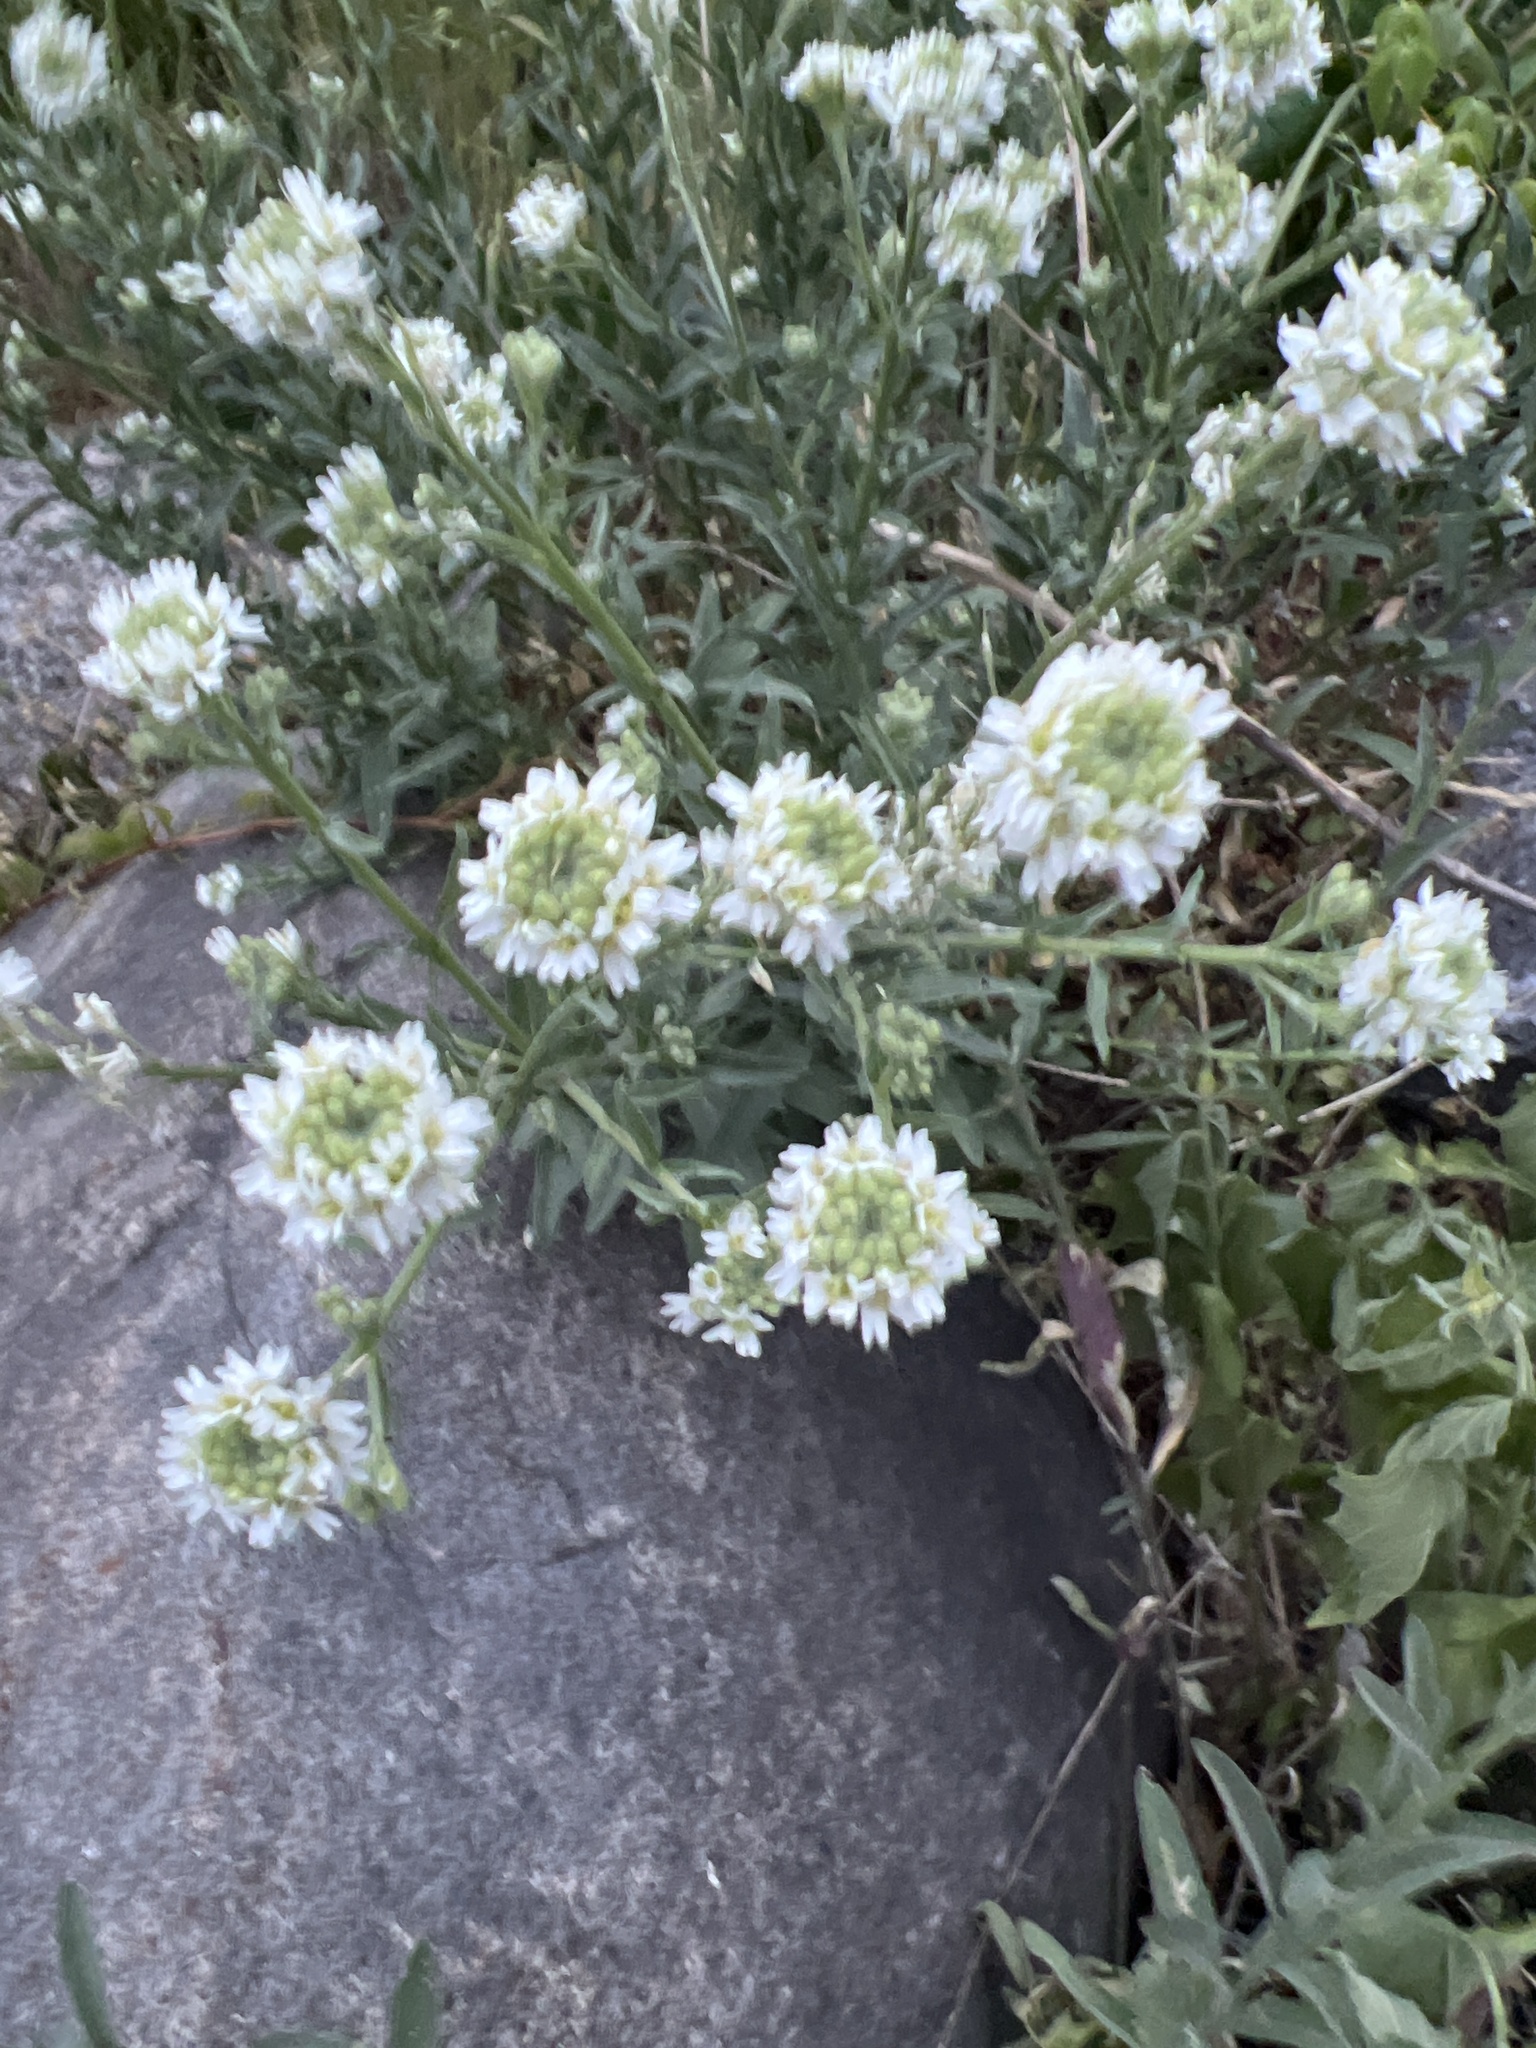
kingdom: Plantae
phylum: Tracheophyta
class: Magnoliopsida
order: Brassicales
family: Brassicaceae
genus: Berteroa
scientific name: Berteroa incana
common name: Hoary alison
